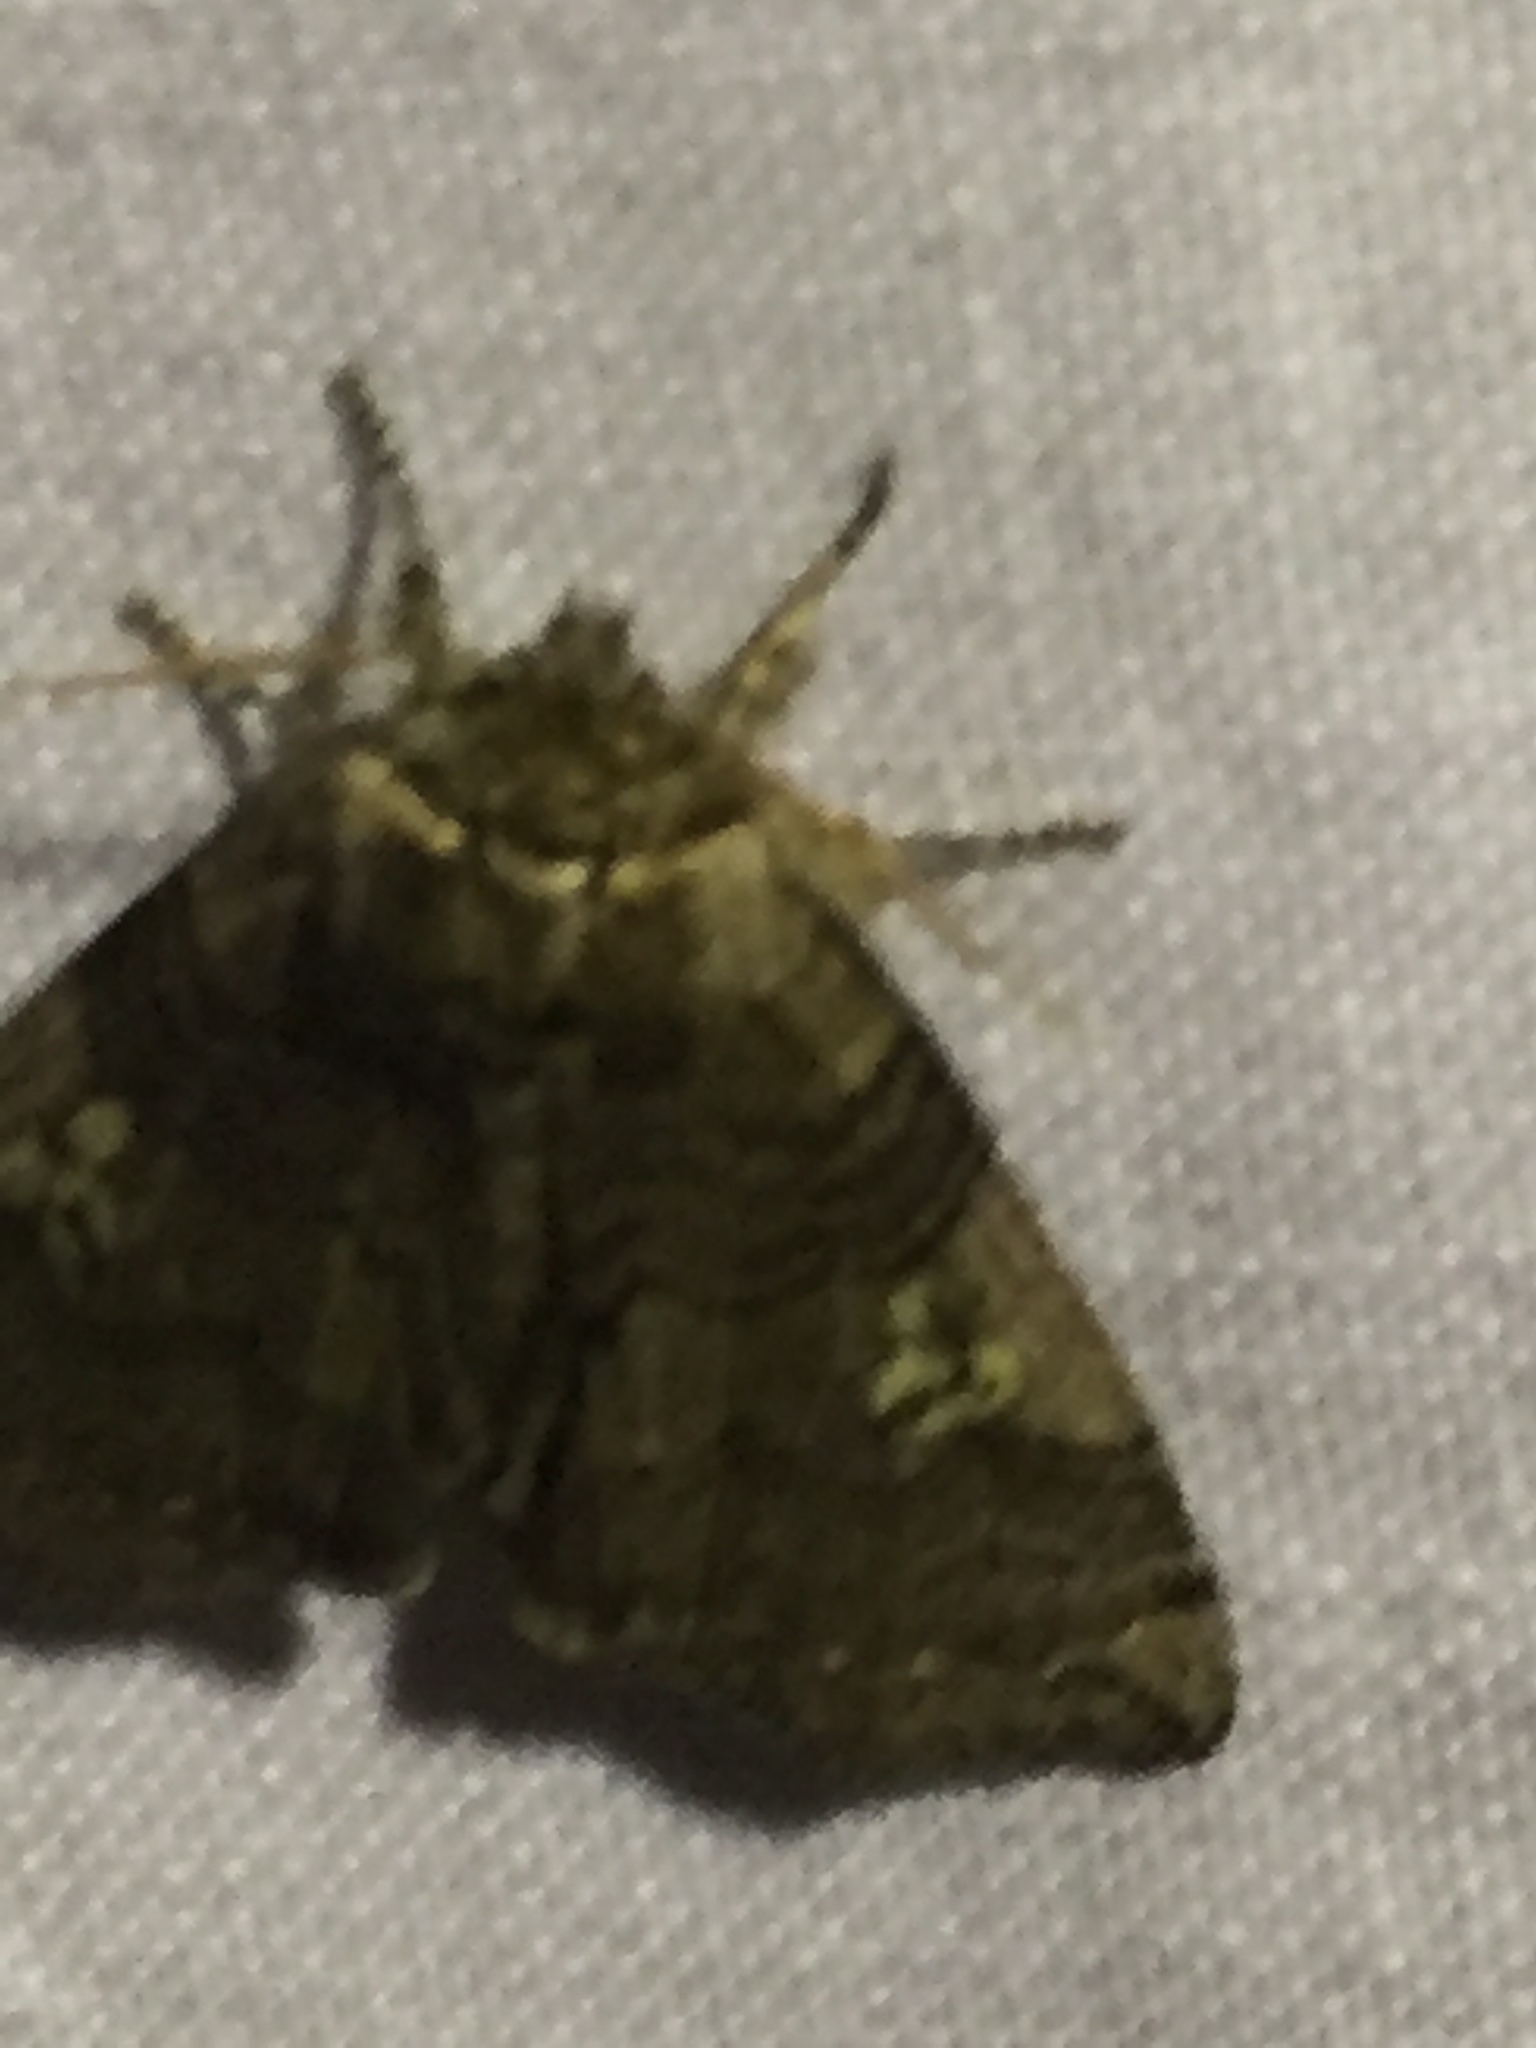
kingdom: Animalia
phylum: Arthropoda
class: Insecta
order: Lepidoptera
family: Drepanidae
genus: Tethea
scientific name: Tethea or
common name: Poplar lutestring
